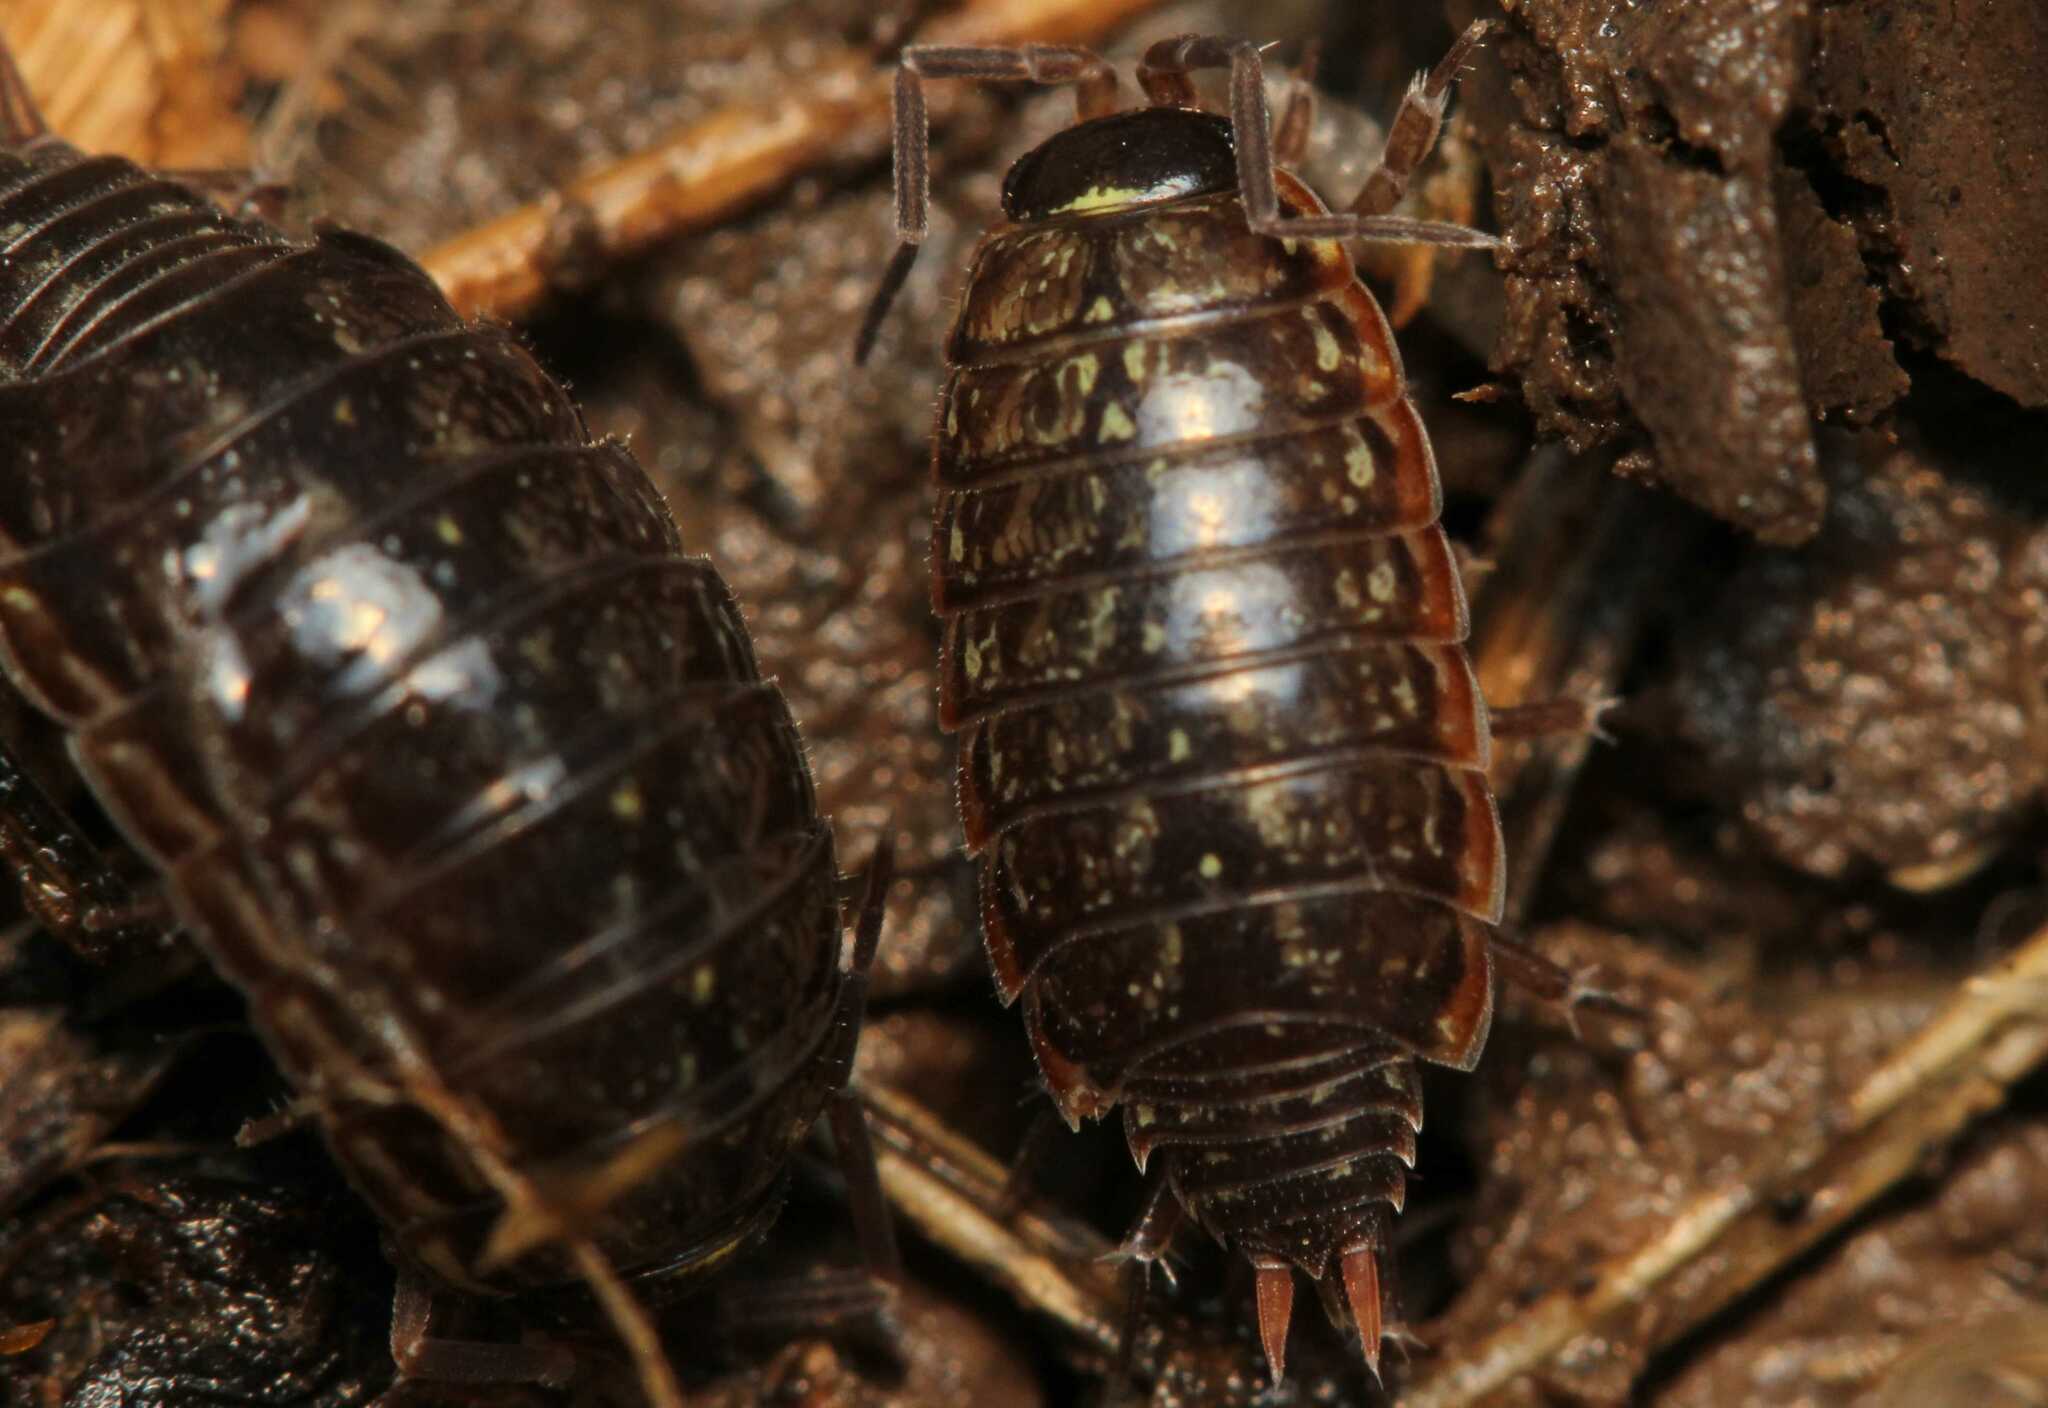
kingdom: Animalia
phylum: Arthropoda
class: Malacostraca
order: Isopoda
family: Philosciidae
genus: Philoscia
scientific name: Philoscia muscorum
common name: Common striped woodlouse
